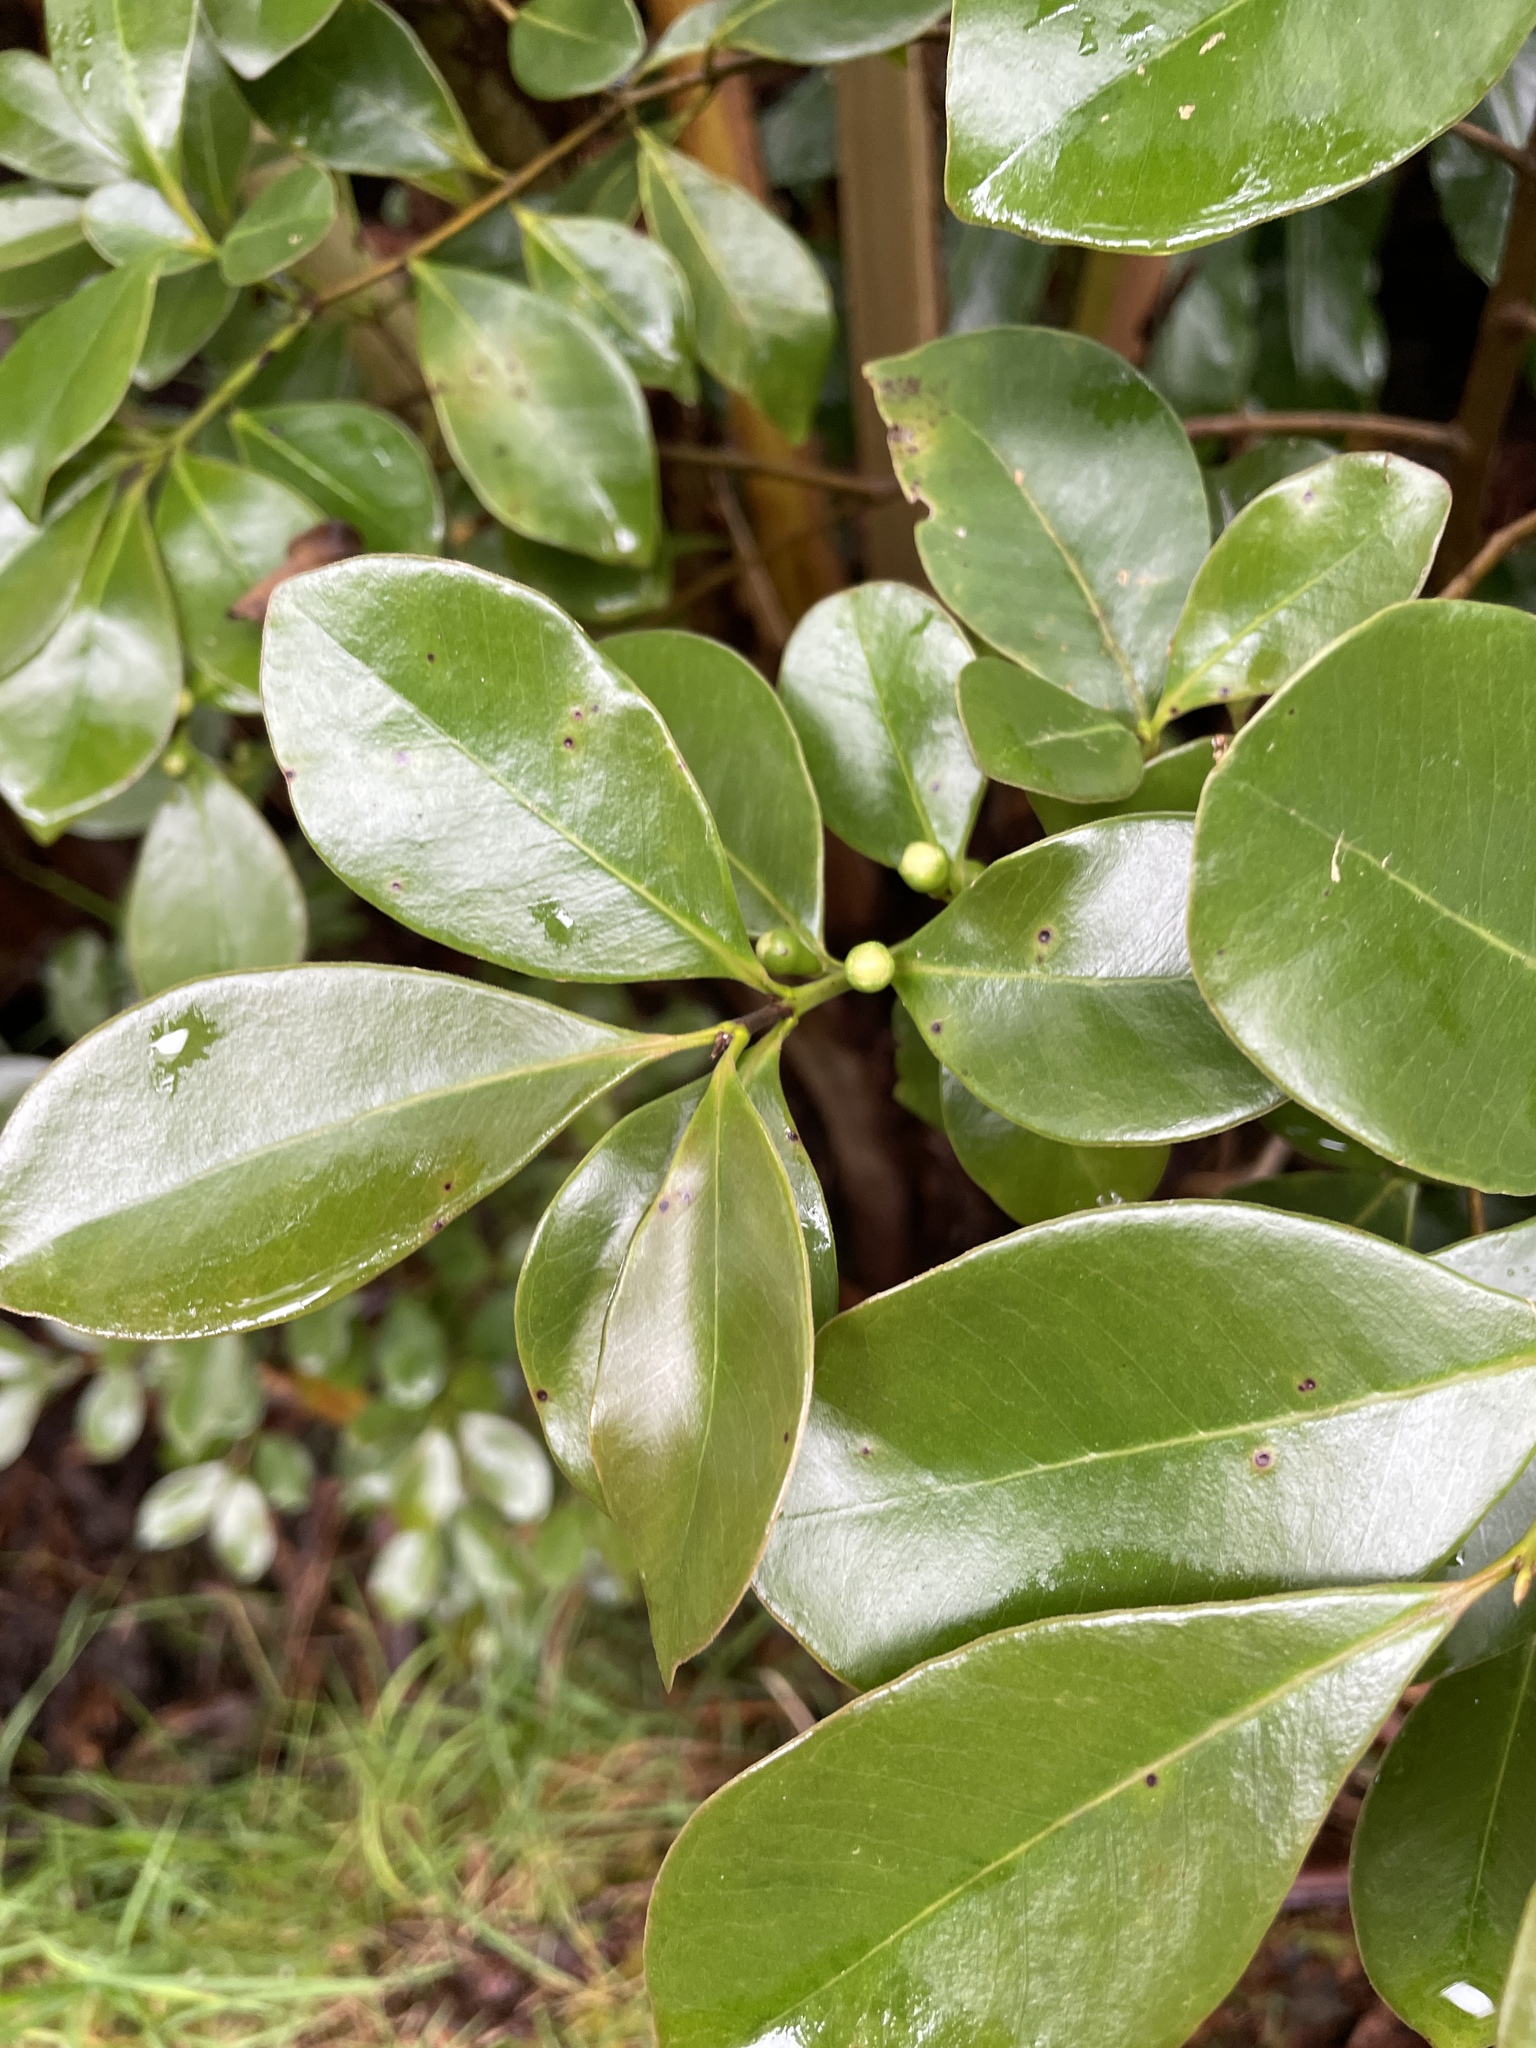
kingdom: Plantae
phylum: Tracheophyta
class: Magnoliopsida
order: Myrtales
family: Myrtaceae
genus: Psidium
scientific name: Psidium cattleianum
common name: Strawberry guava
